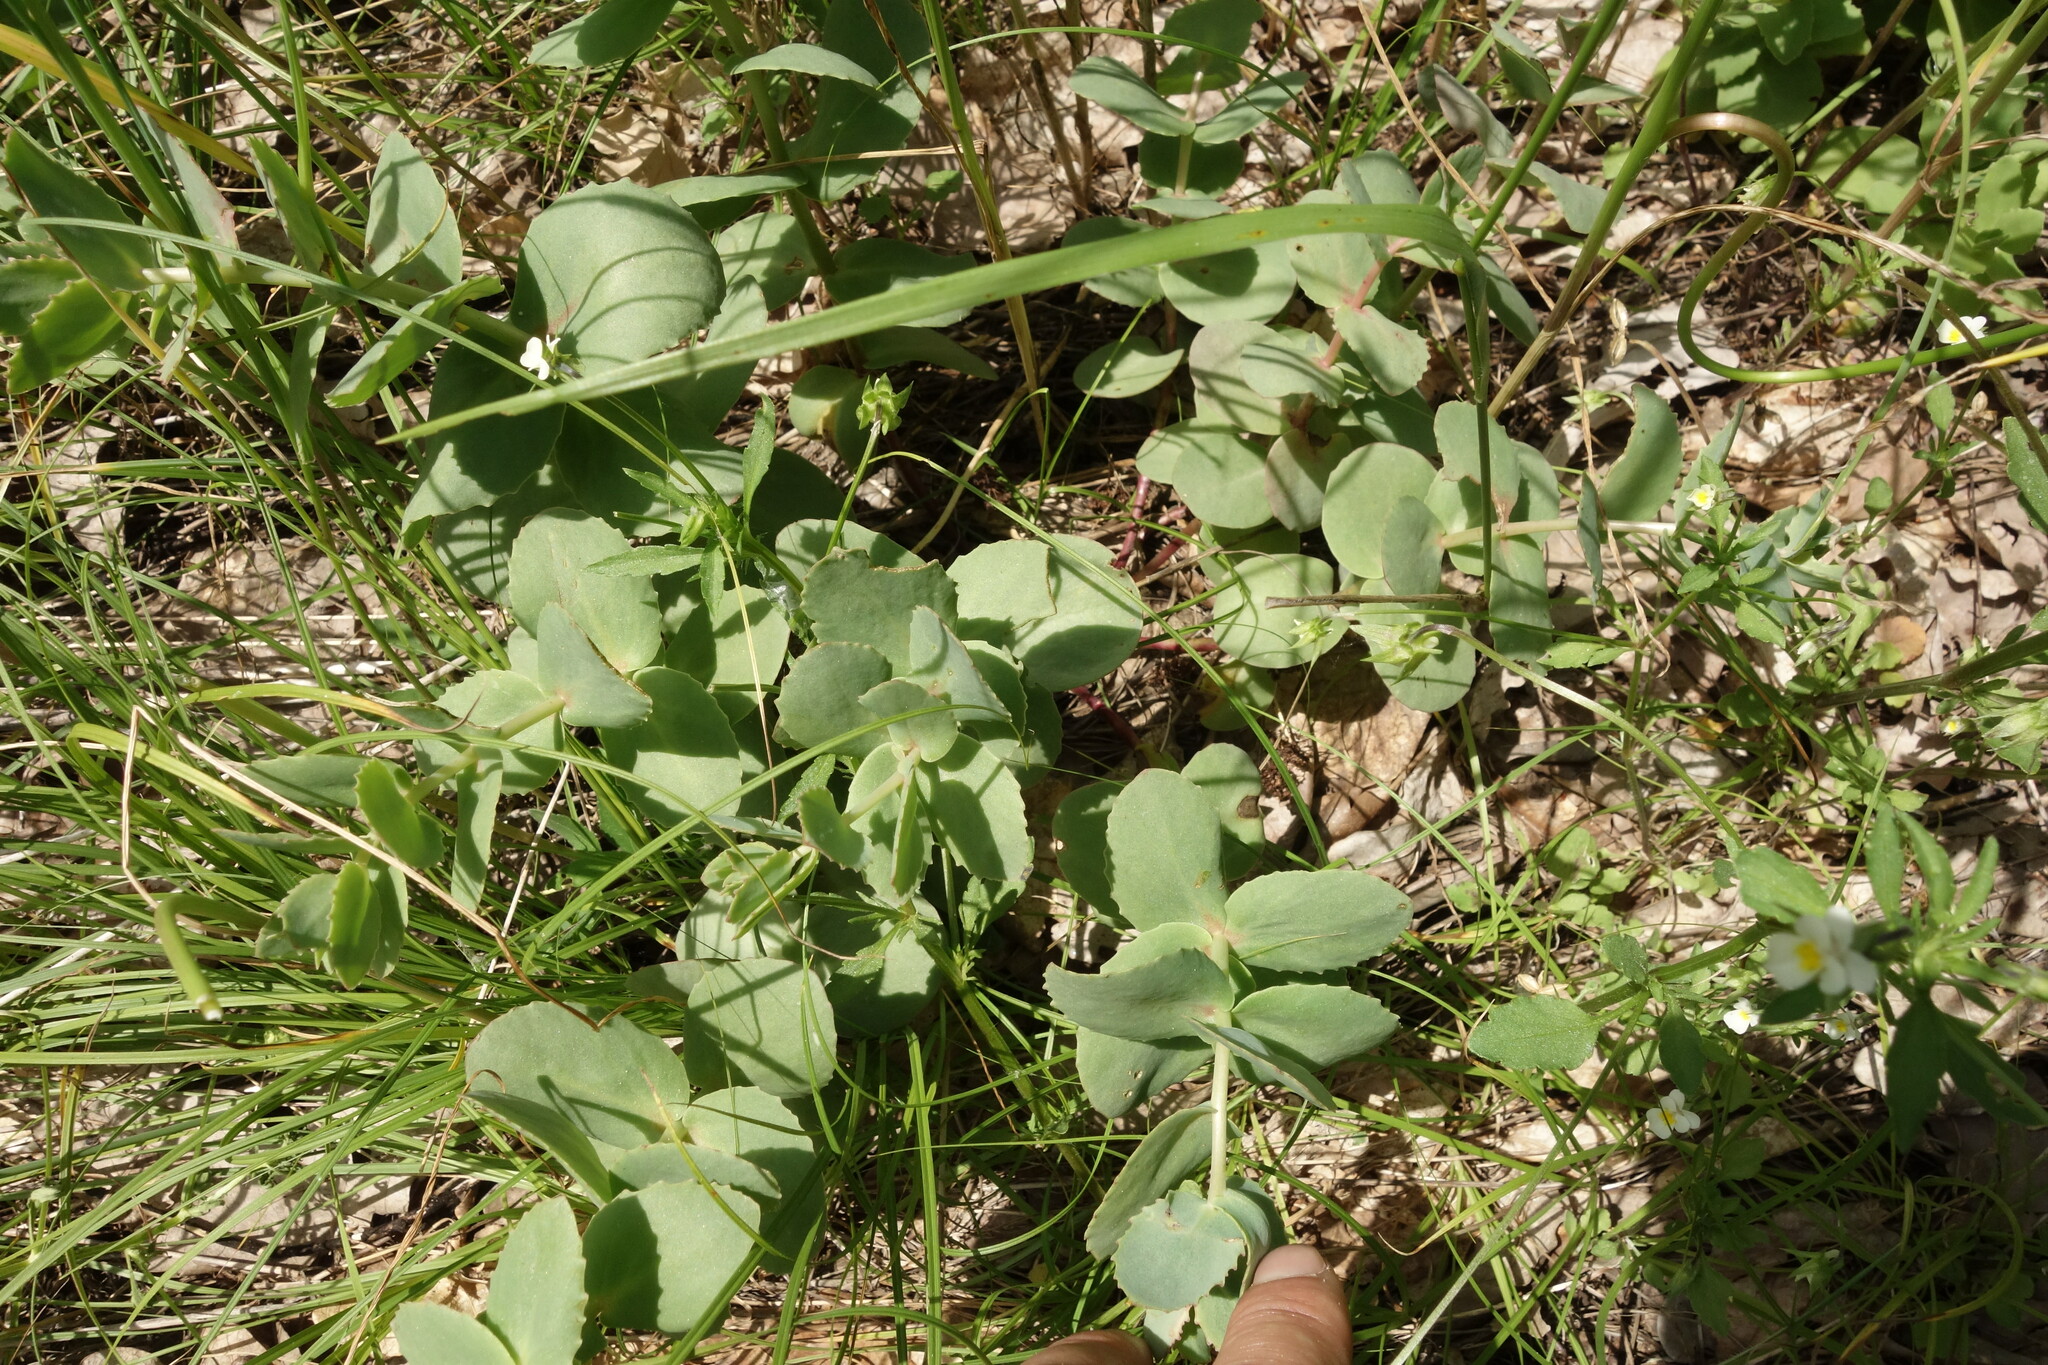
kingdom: Plantae
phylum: Tracheophyta
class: Magnoliopsida
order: Saxifragales
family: Crassulaceae
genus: Hylotelephium
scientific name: Hylotelephium maximum
